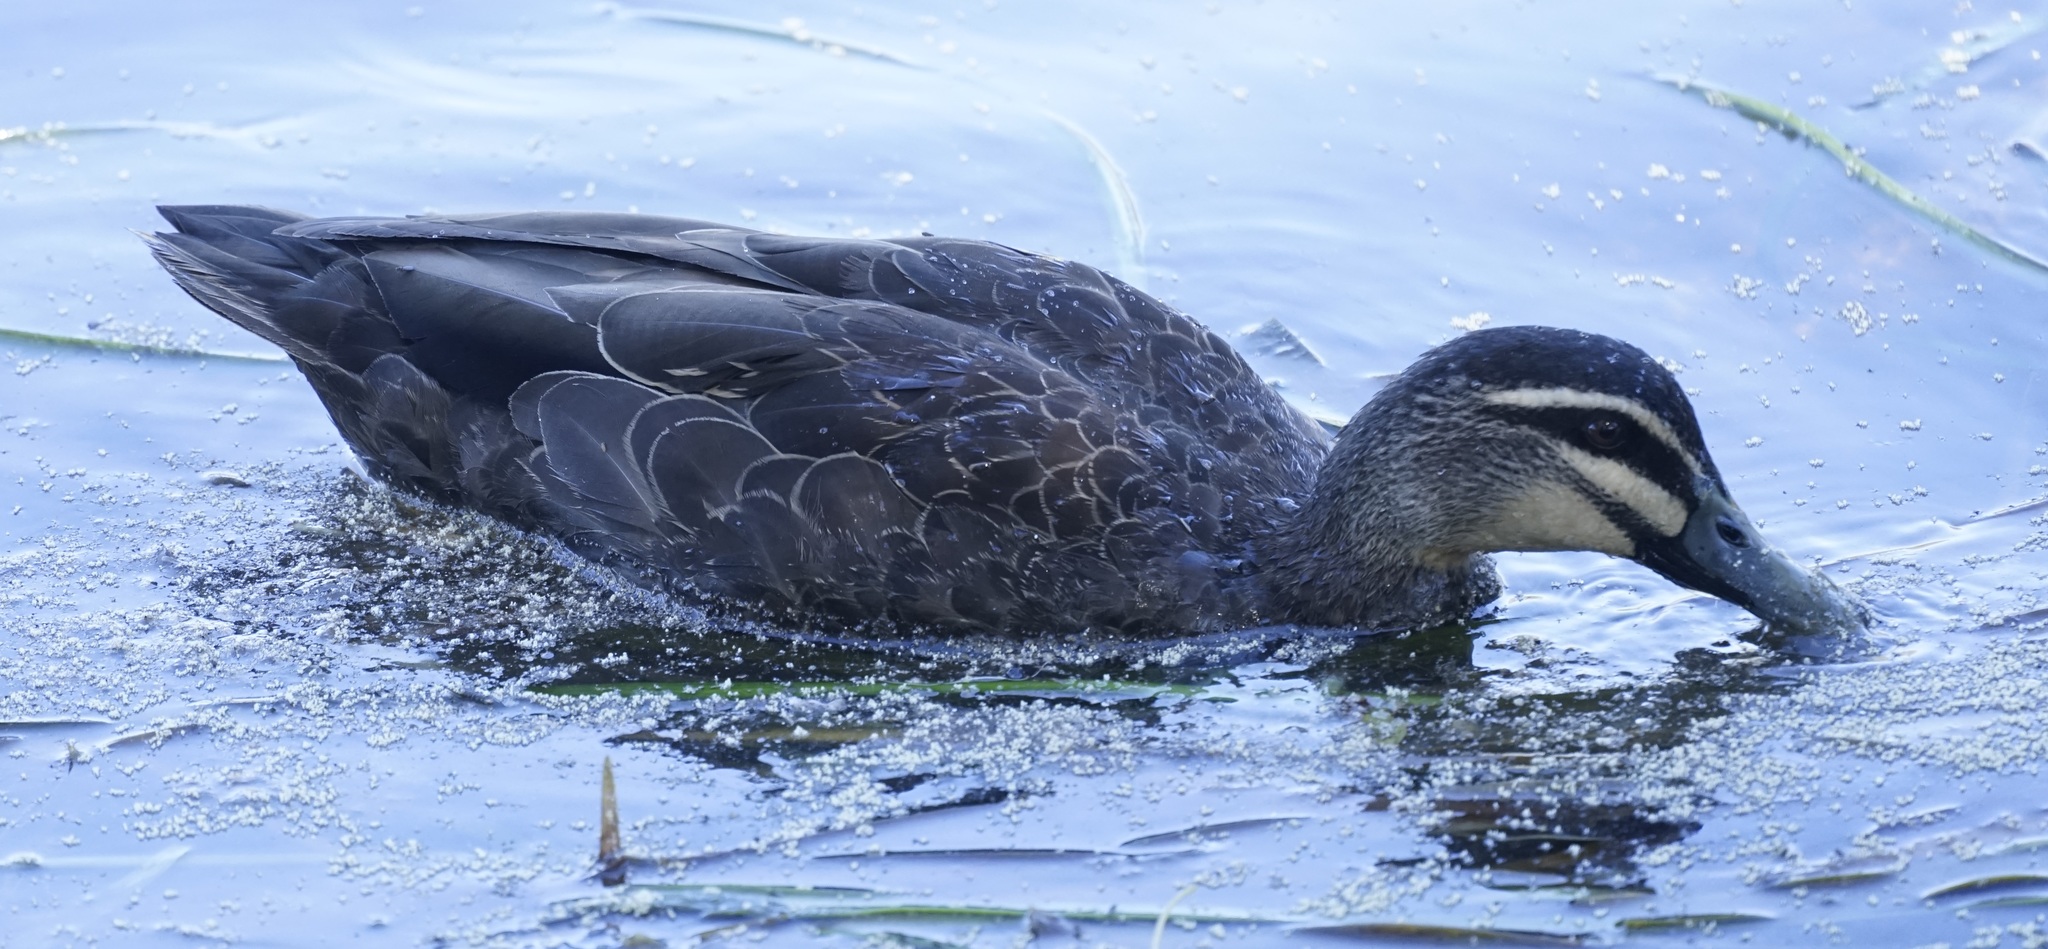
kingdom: Animalia
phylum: Chordata
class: Aves
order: Anseriformes
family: Anatidae
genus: Anas
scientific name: Anas superciliosa
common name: Pacific black duck
